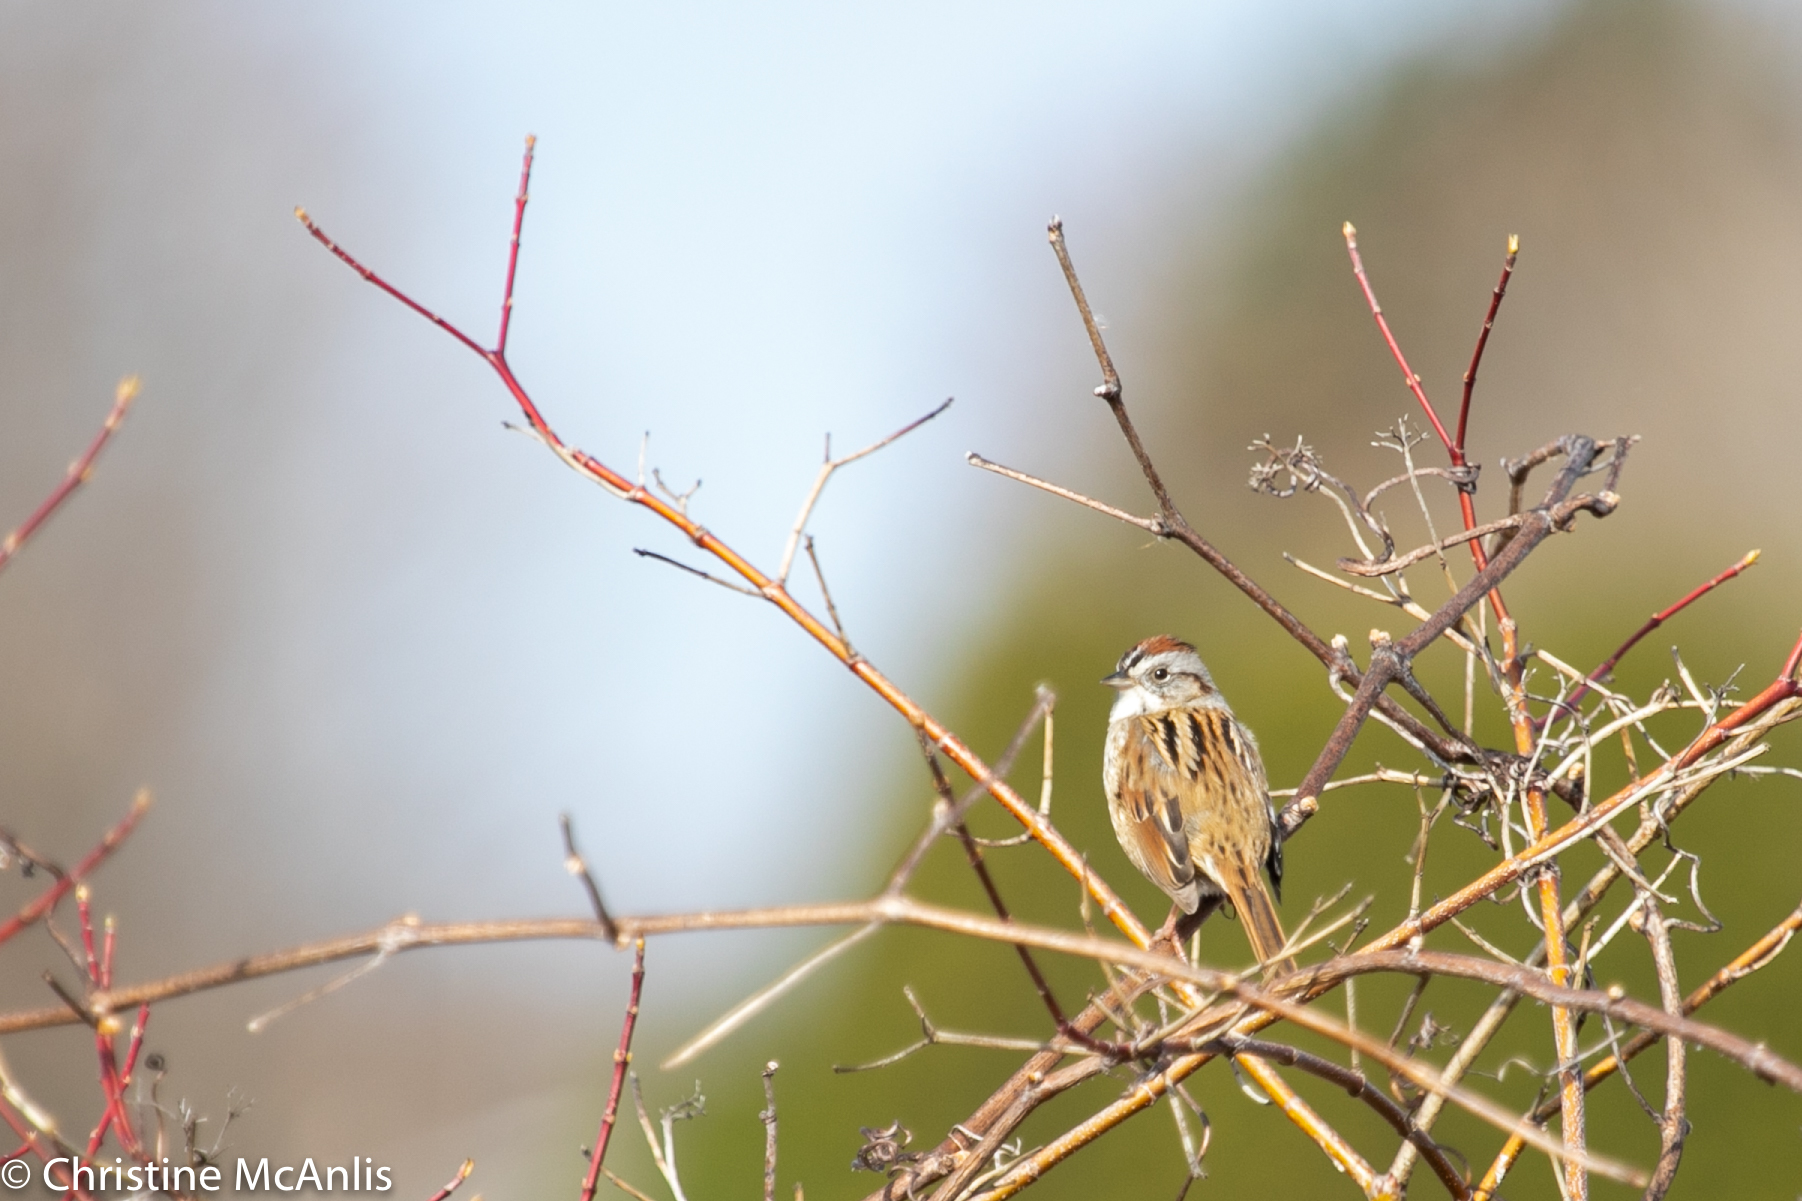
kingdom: Animalia
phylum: Chordata
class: Aves
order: Passeriformes
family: Passerellidae
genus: Melospiza
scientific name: Melospiza georgiana
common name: Swamp sparrow
